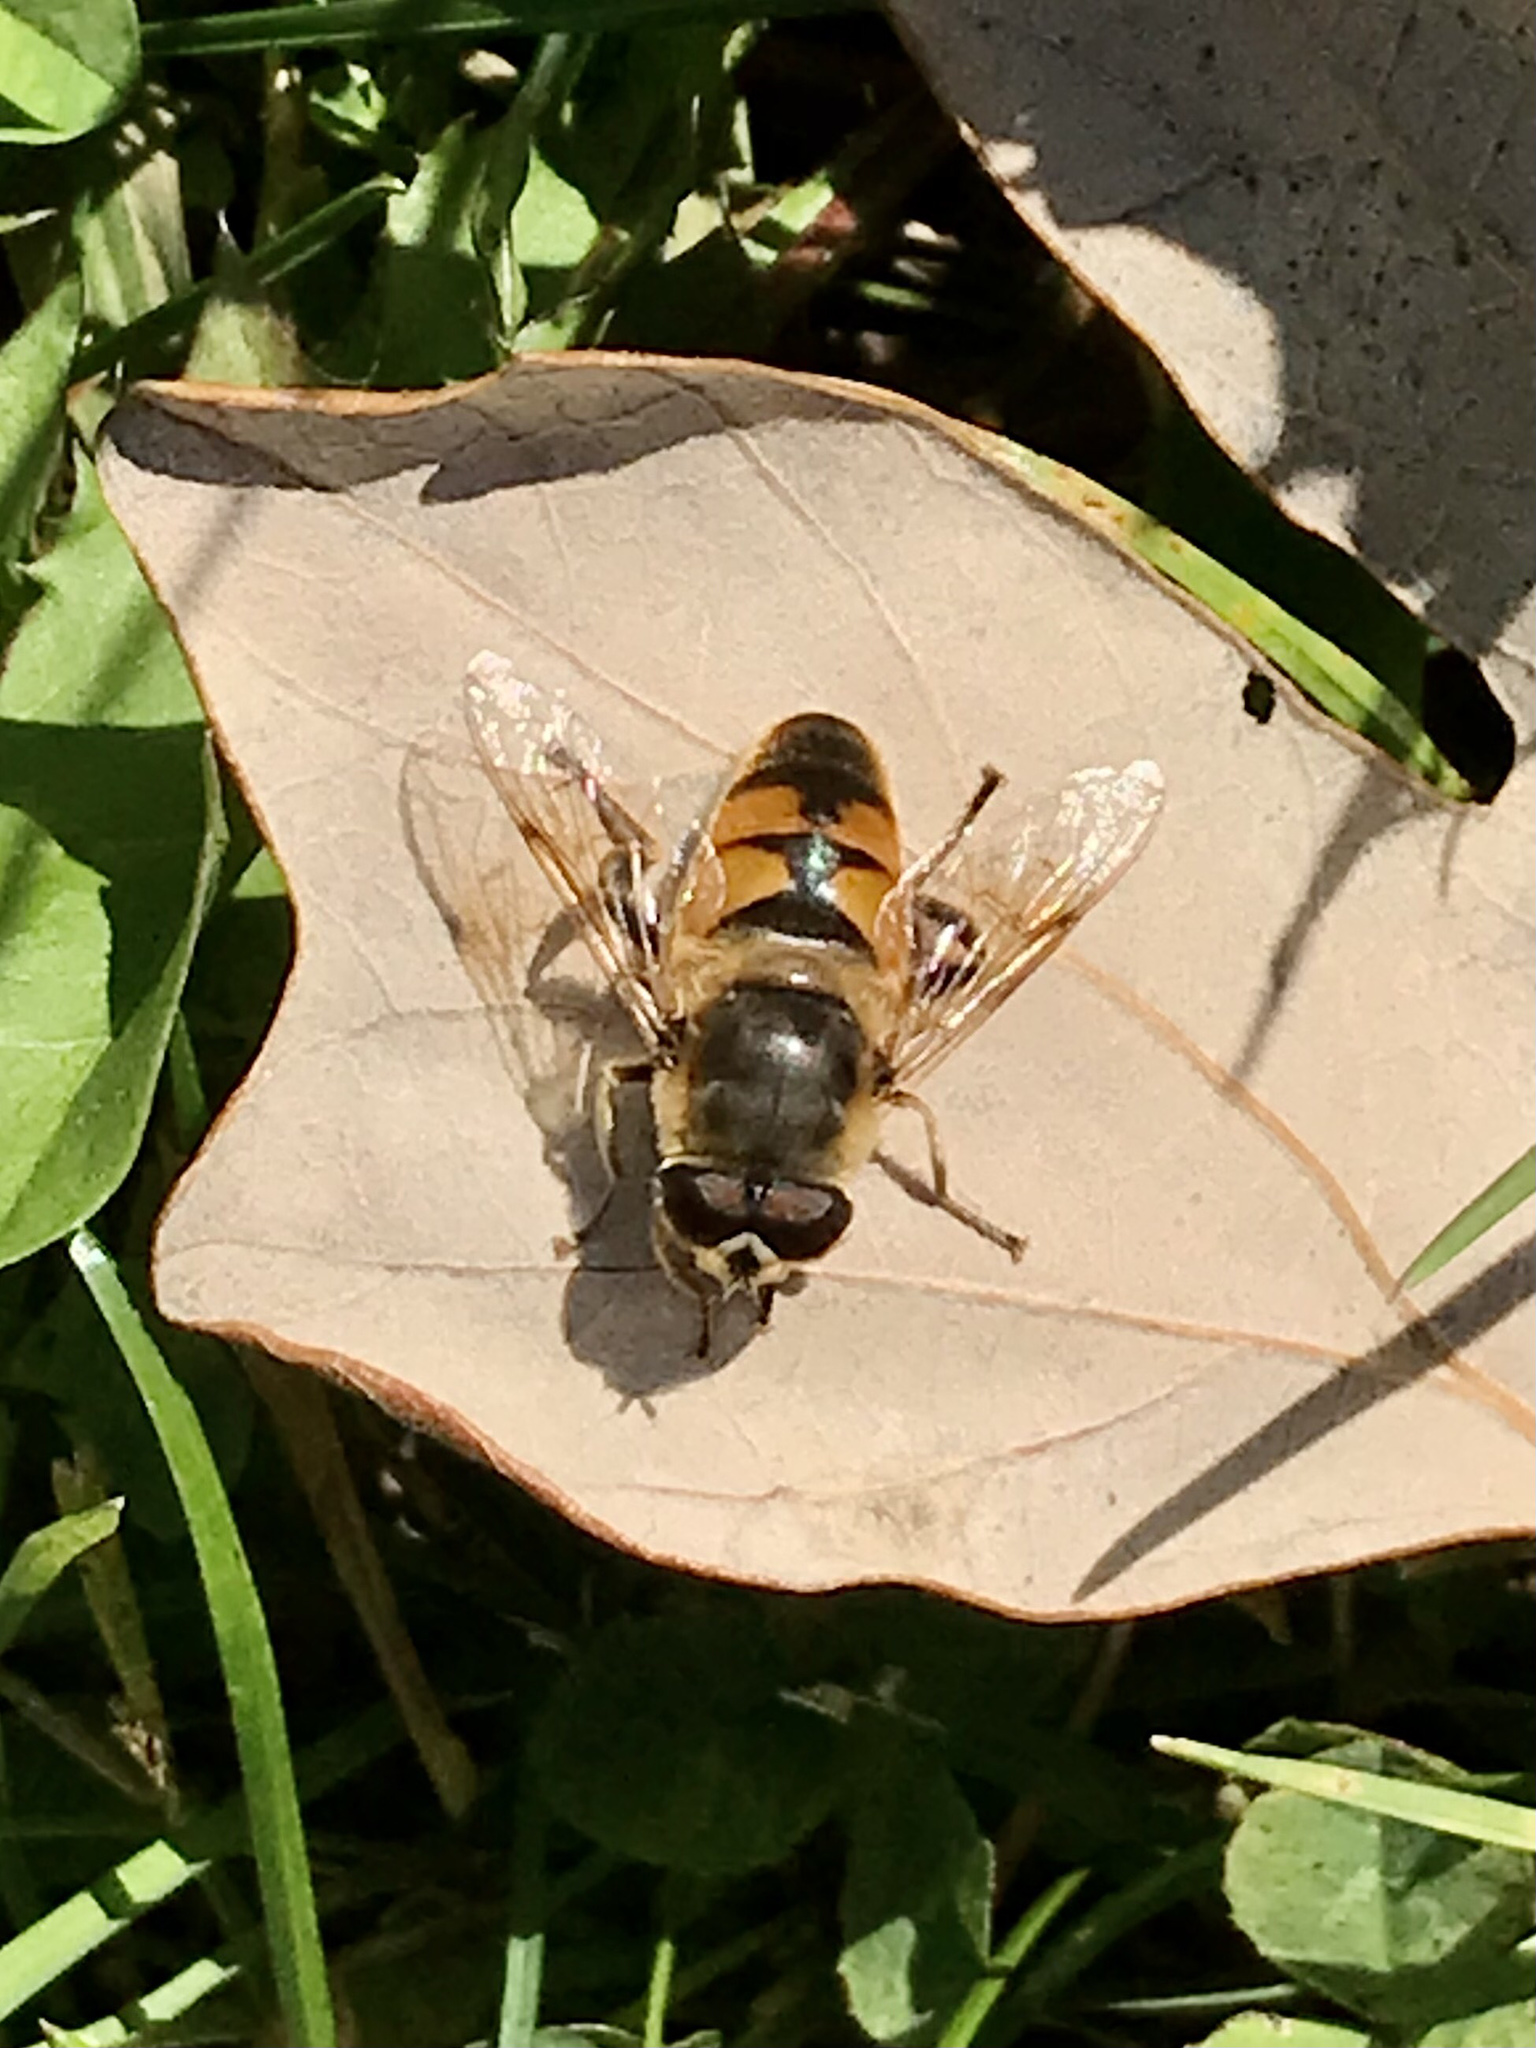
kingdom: Animalia
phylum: Arthropoda
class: Insecta
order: Diptera
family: Syrphidae
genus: Eristalis
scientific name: Eristalis tenax
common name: Drone fly
